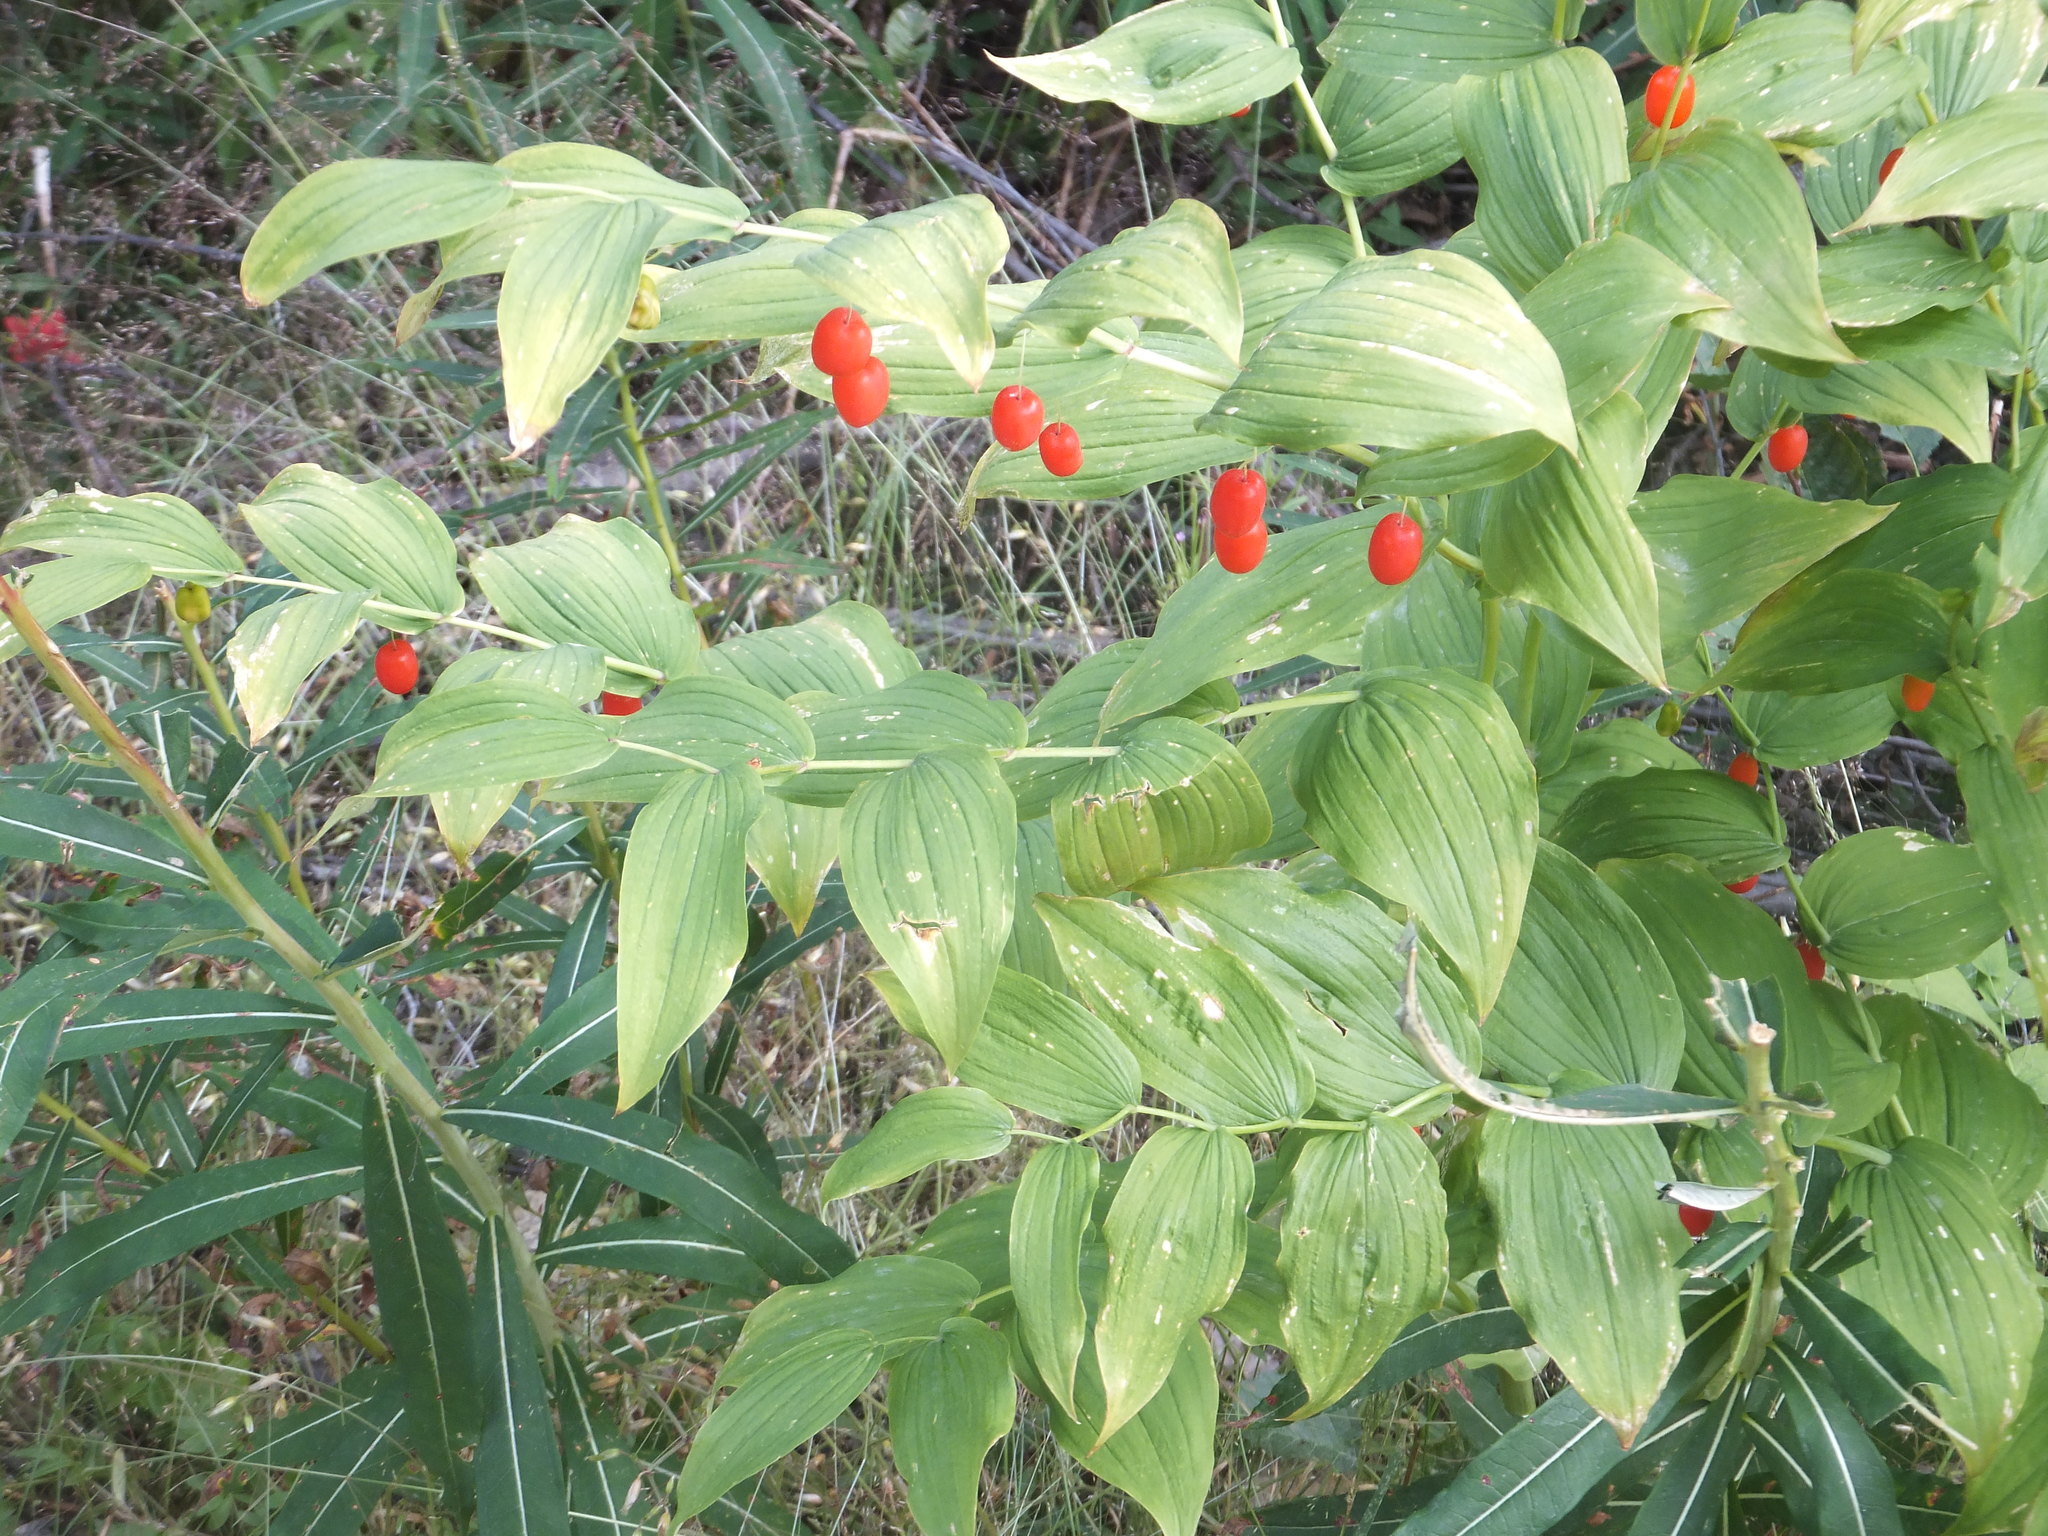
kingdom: Plantae
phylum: Tracheophyta
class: Liliopsida
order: Liliales
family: Liliaceae
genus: Streptopus
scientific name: Streptopus amplexifolius
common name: Clasp twisted stalk
